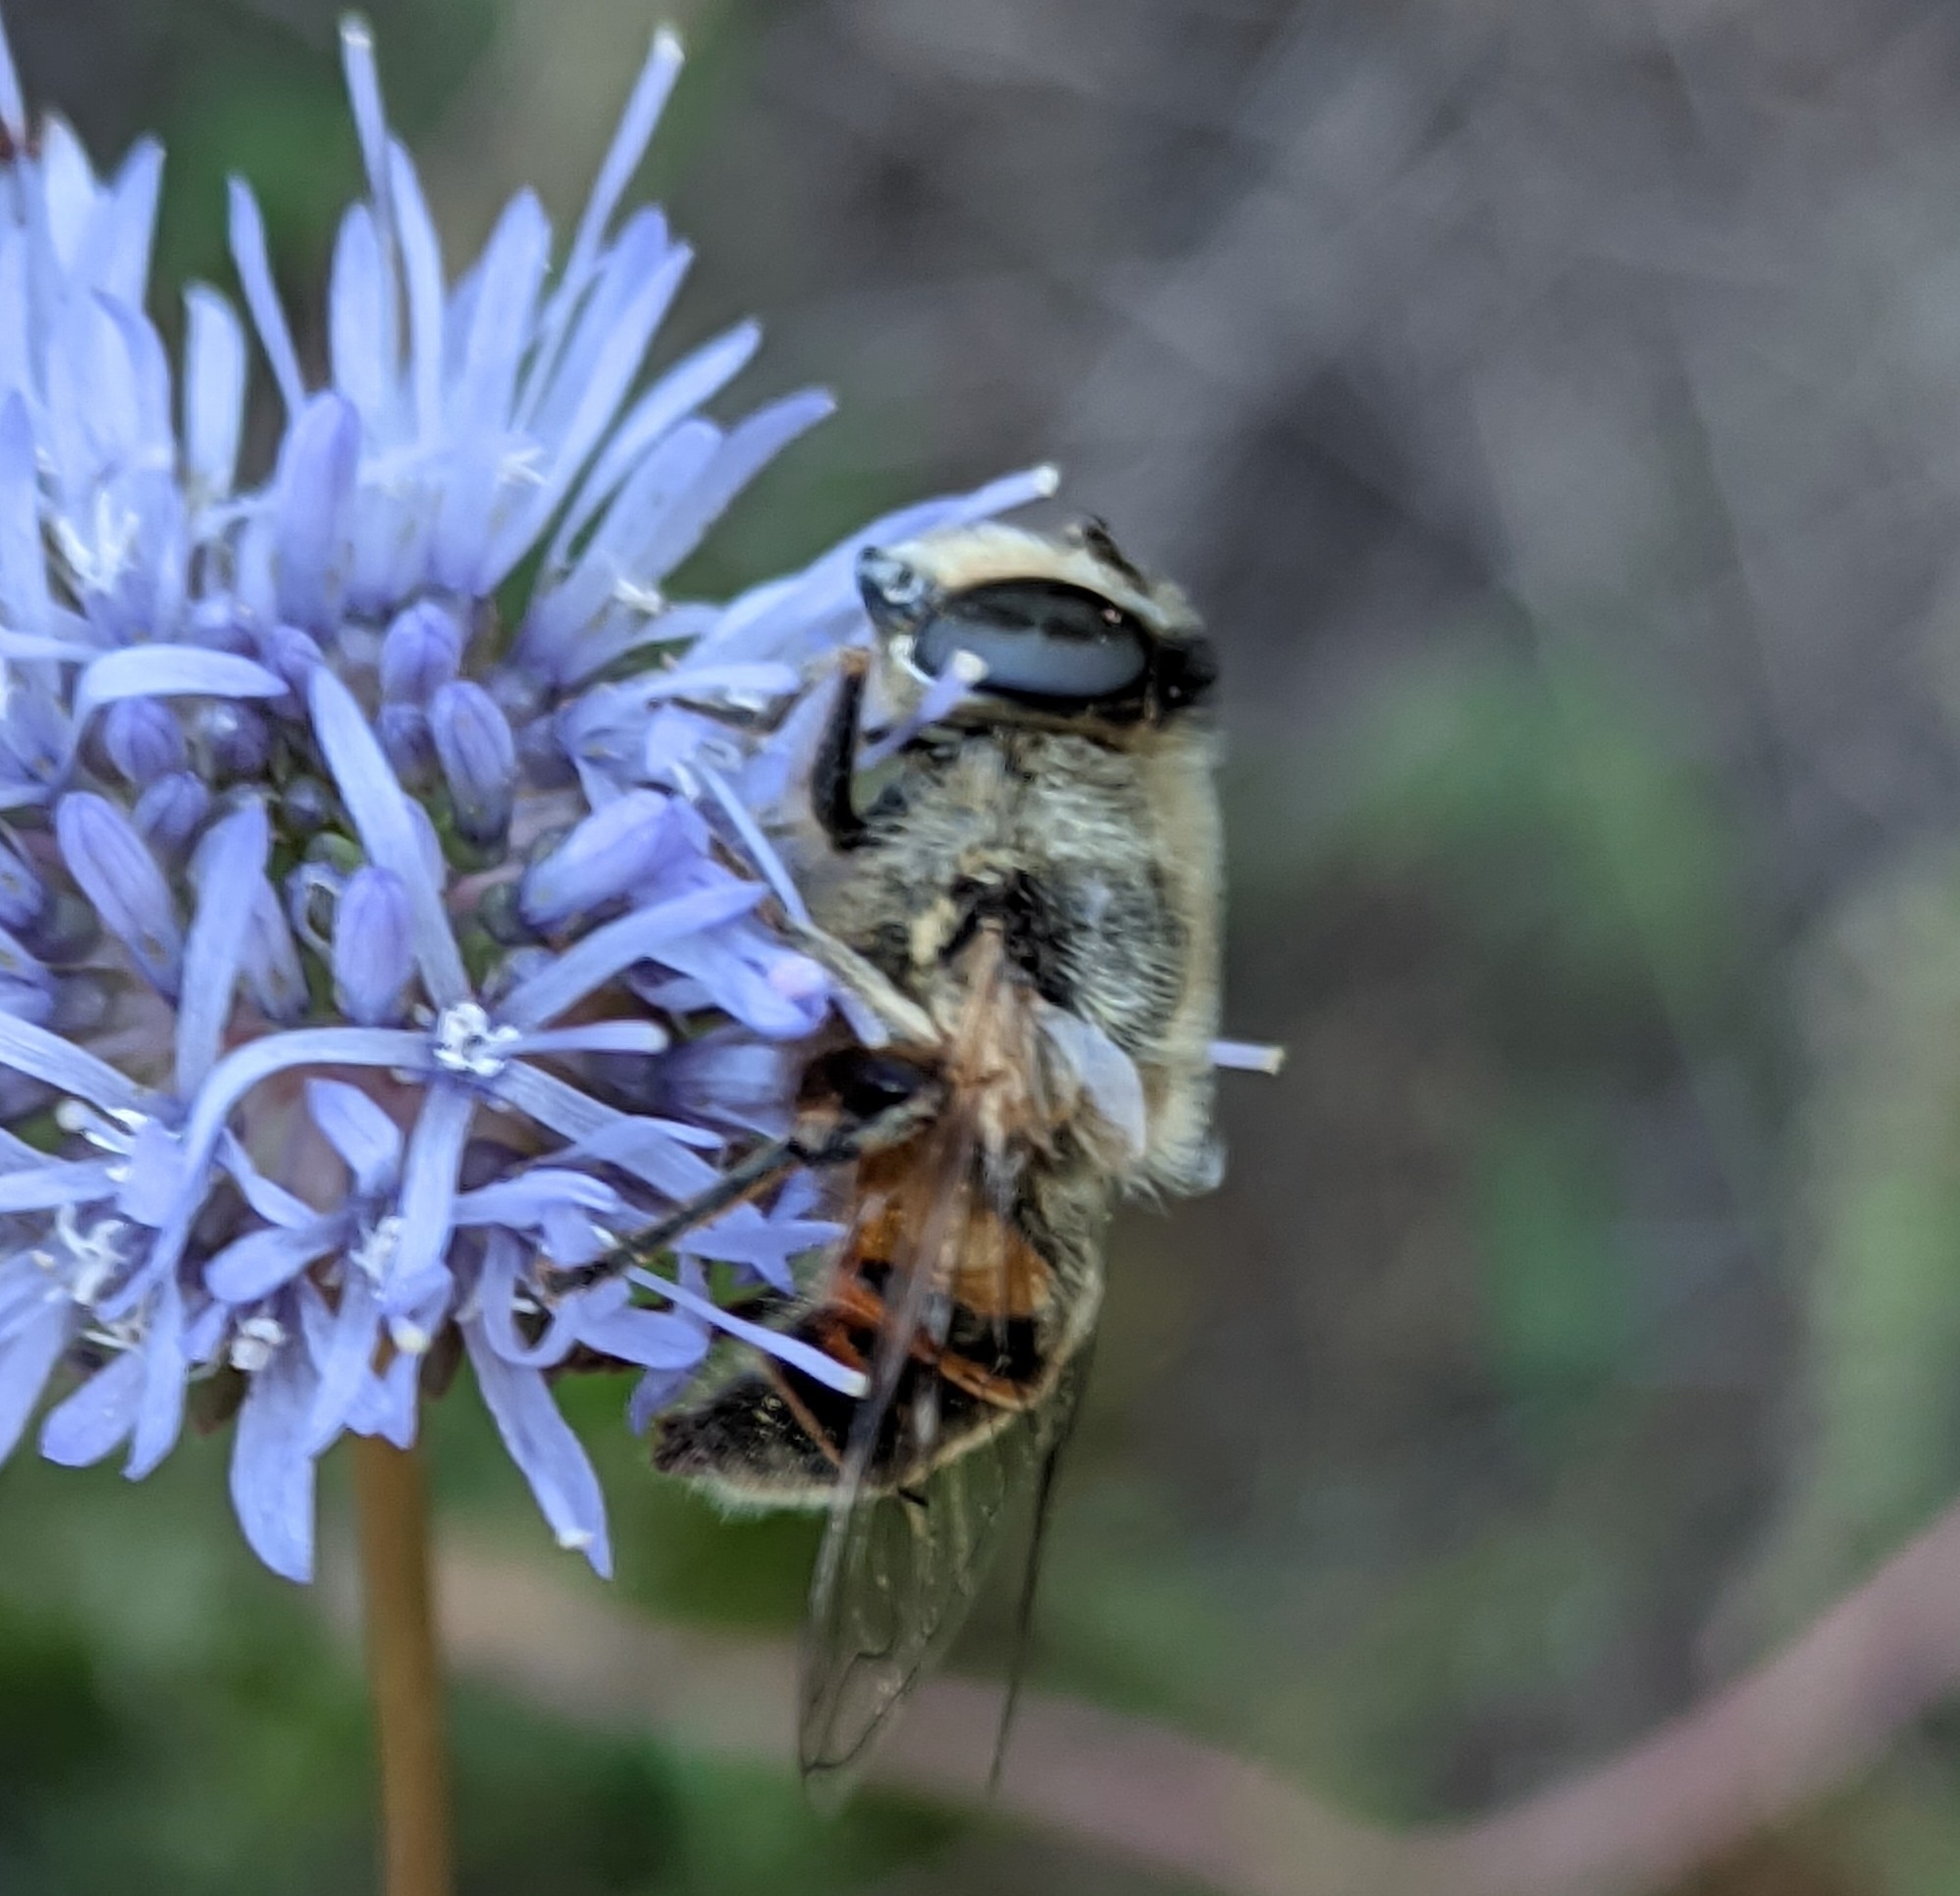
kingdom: Animalia
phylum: Arthropoda
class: Insecta
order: Diptera
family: Syrphidae
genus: Eristalis
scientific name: Eristalis tenax
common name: Drone fly
